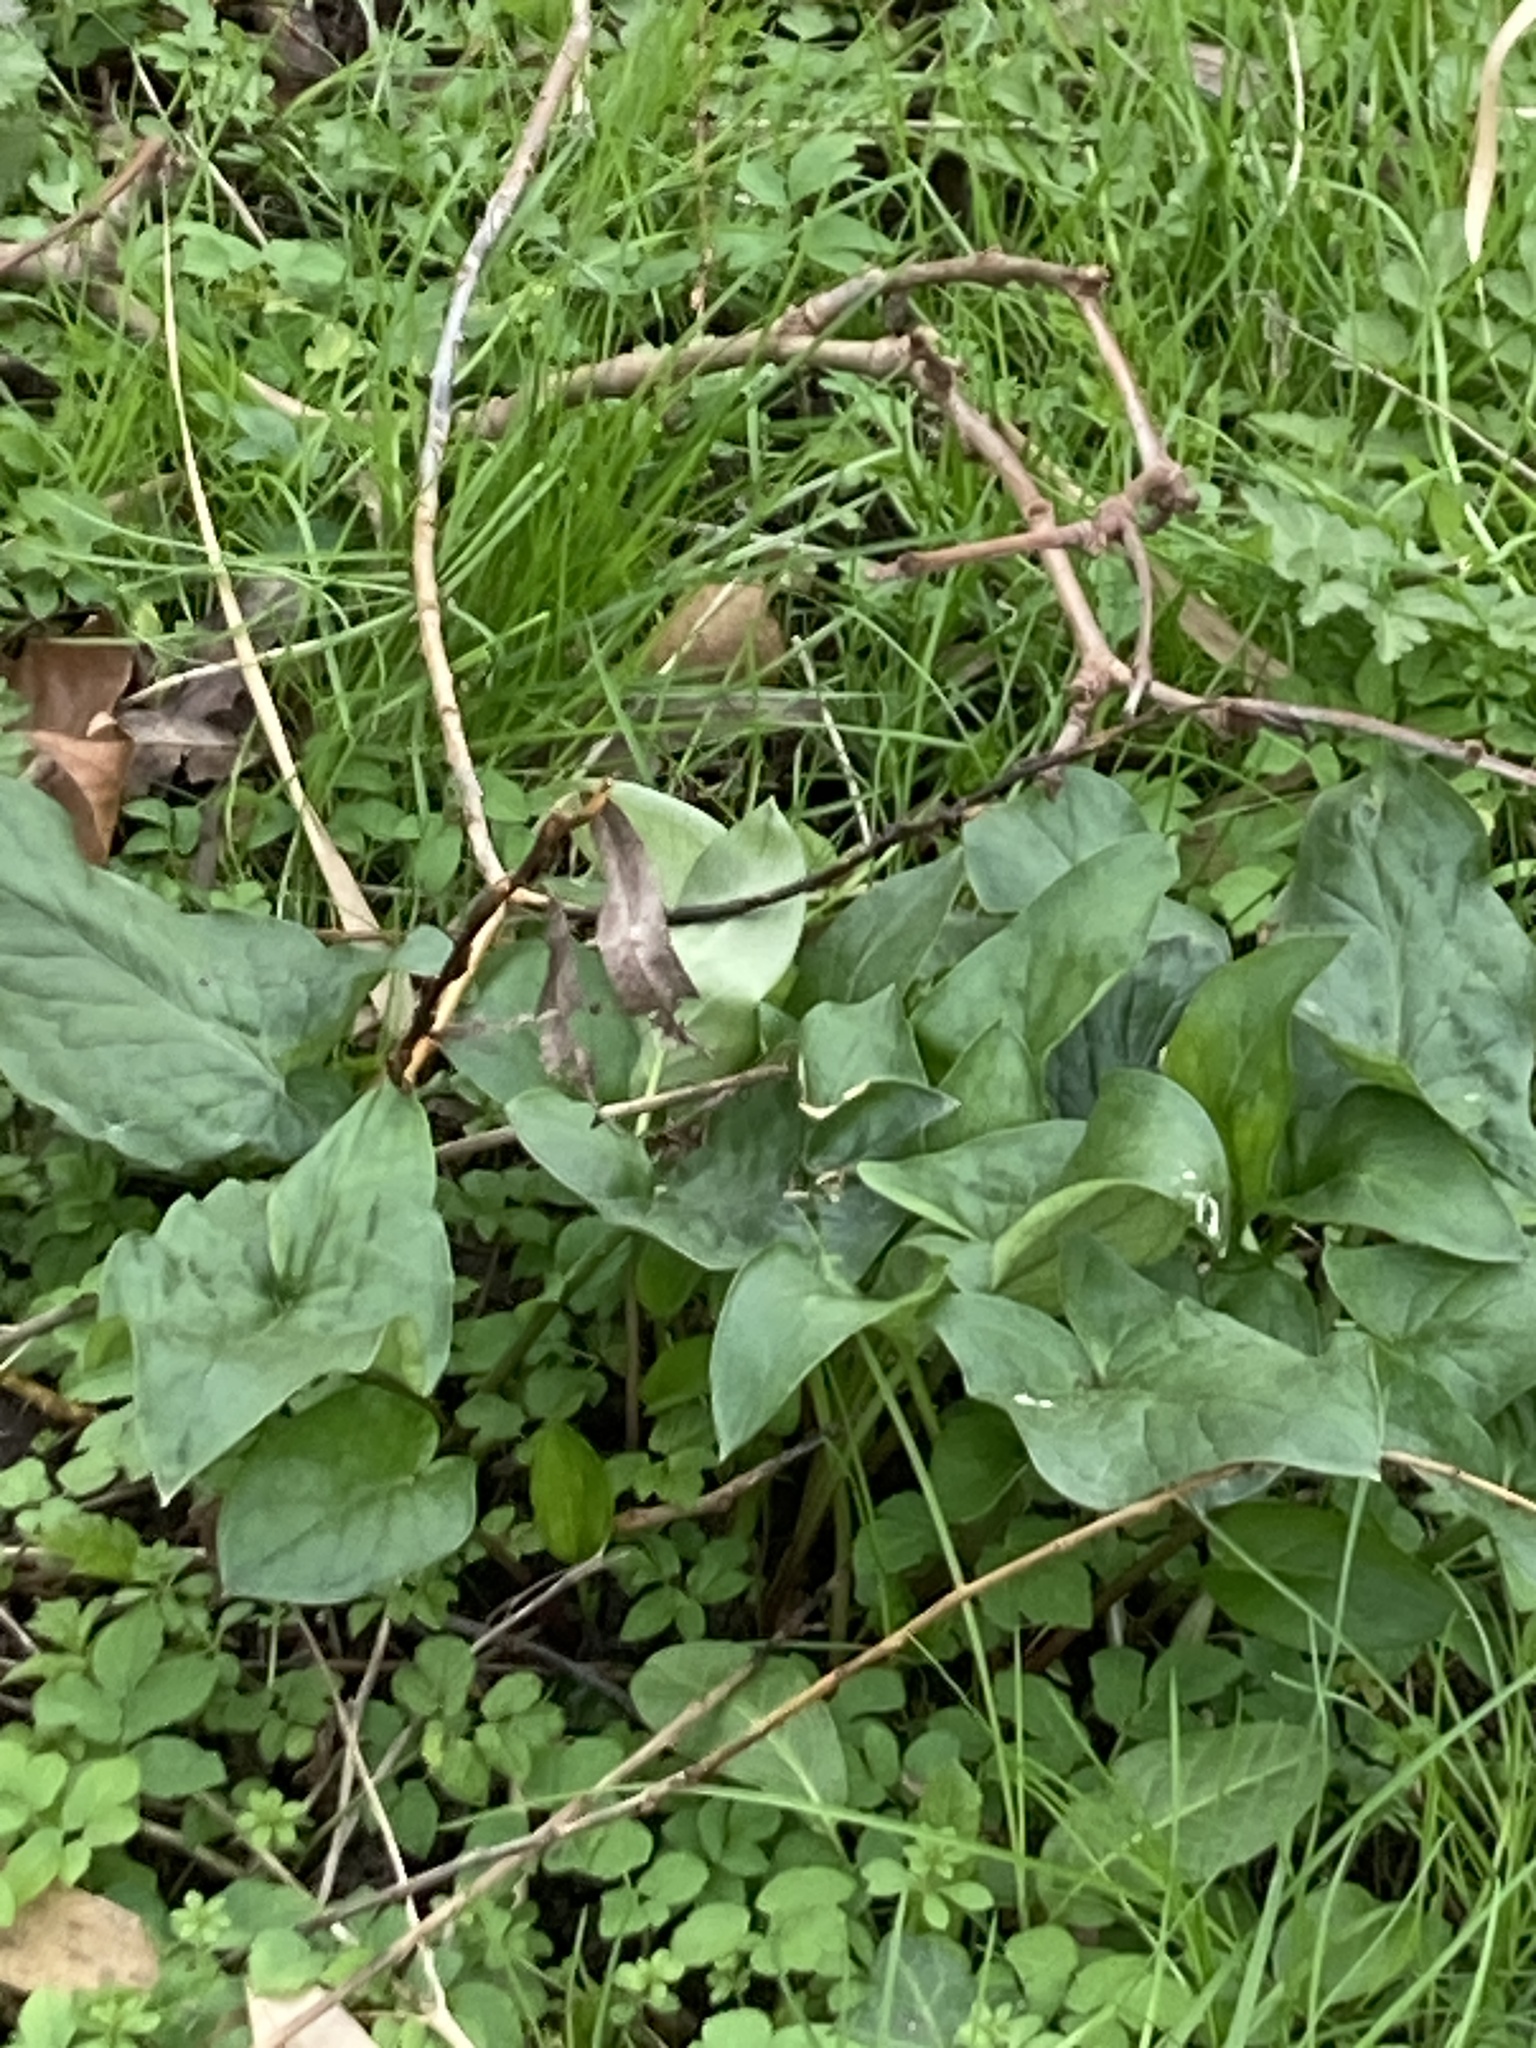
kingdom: Plantae
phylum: Tracheophyta
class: Liliopsida
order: Alismatales
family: Araceae
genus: Arum
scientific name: Arum maculatum
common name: Lords-and-ladies
